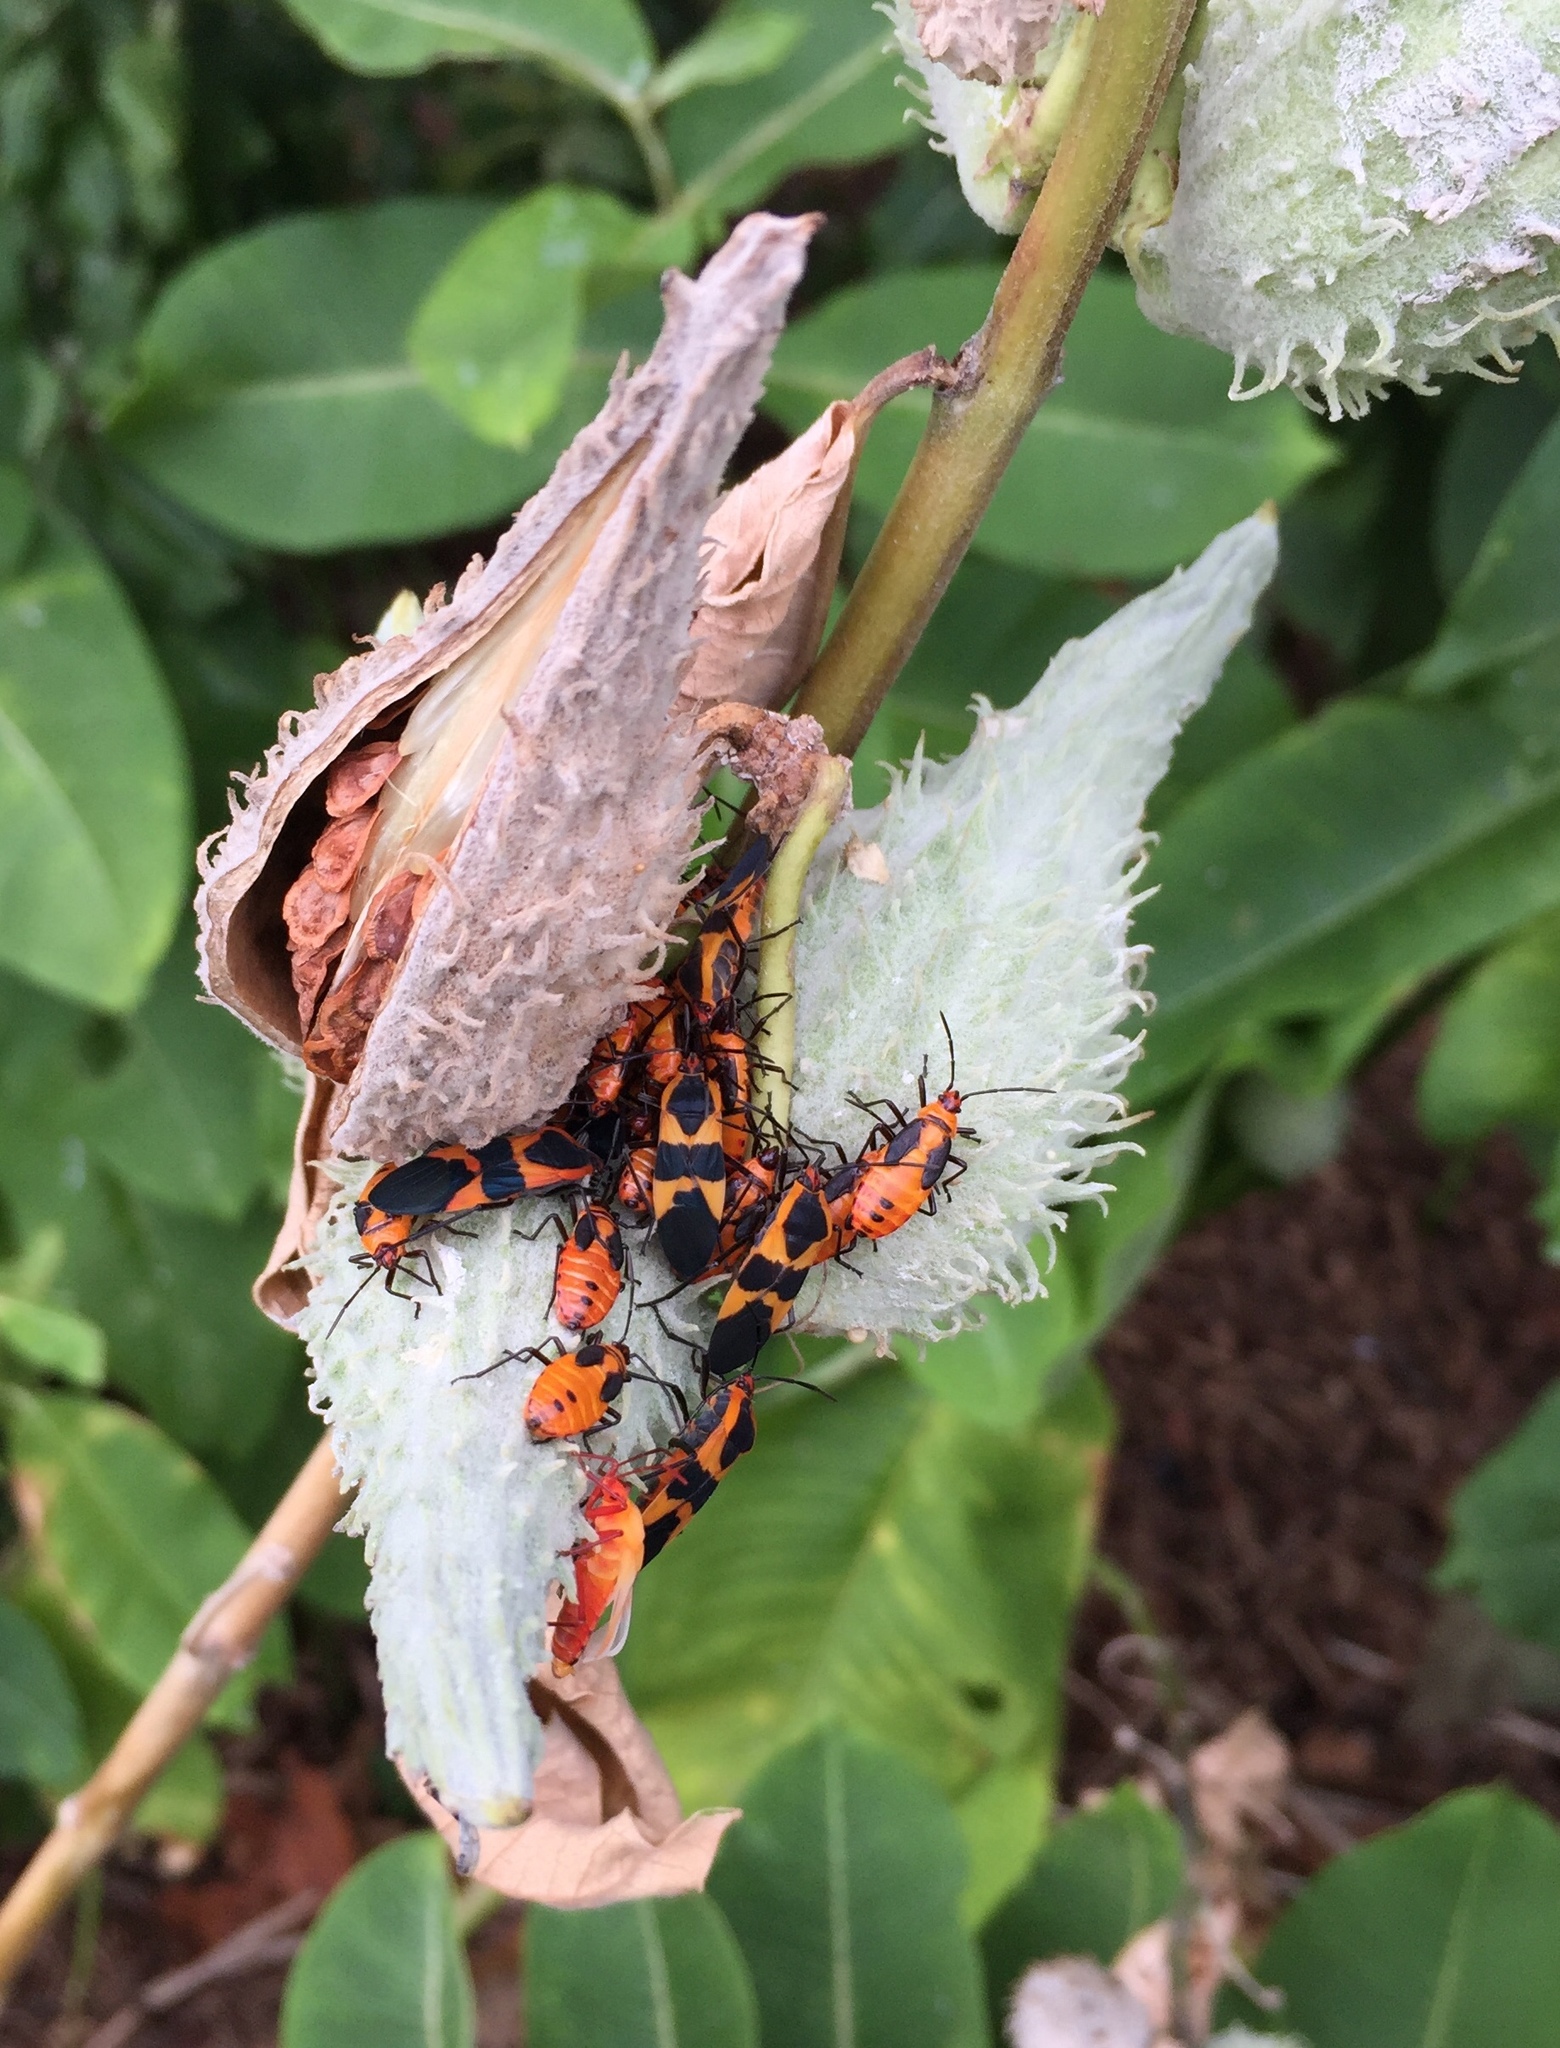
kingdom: Animalia
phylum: Arthropoda
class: Insecta
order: Hemiptera
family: Lygaeidae
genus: Oncopeltus
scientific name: Oncopeltus fasciatus
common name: Large milkweed bug
